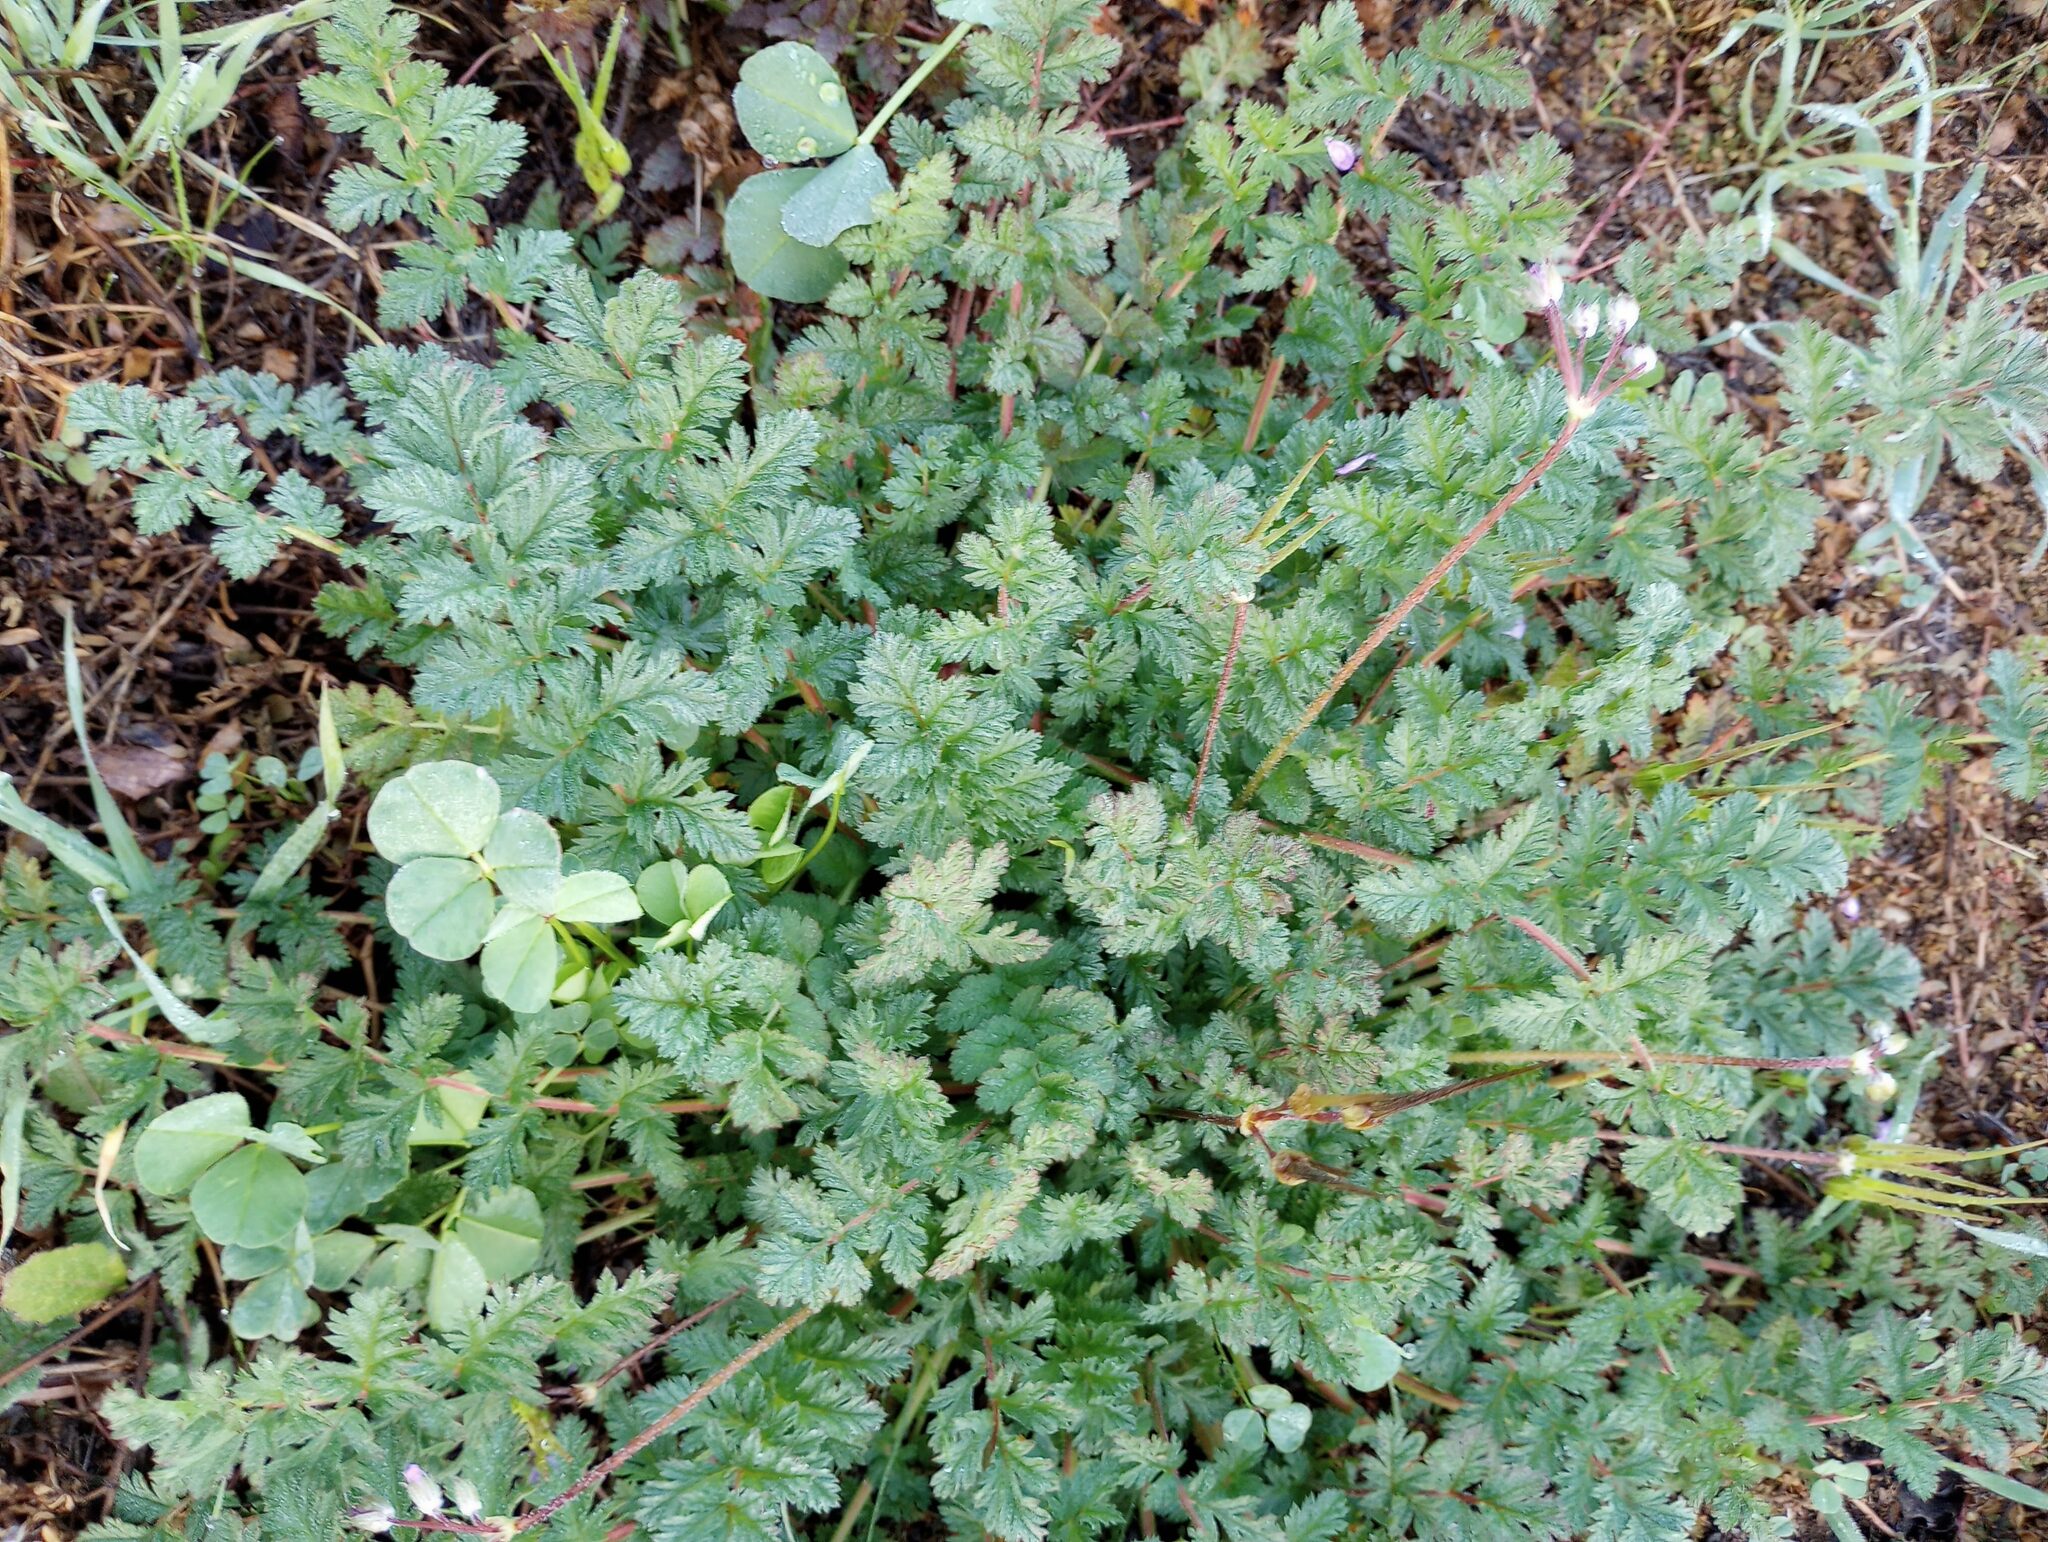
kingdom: Plantae
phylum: Tracheophyta
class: Magnoliopsida
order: Geraniales
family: Geraniaceae
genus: Erodium
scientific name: Erodium cicutarium
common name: Common stork's-bill
